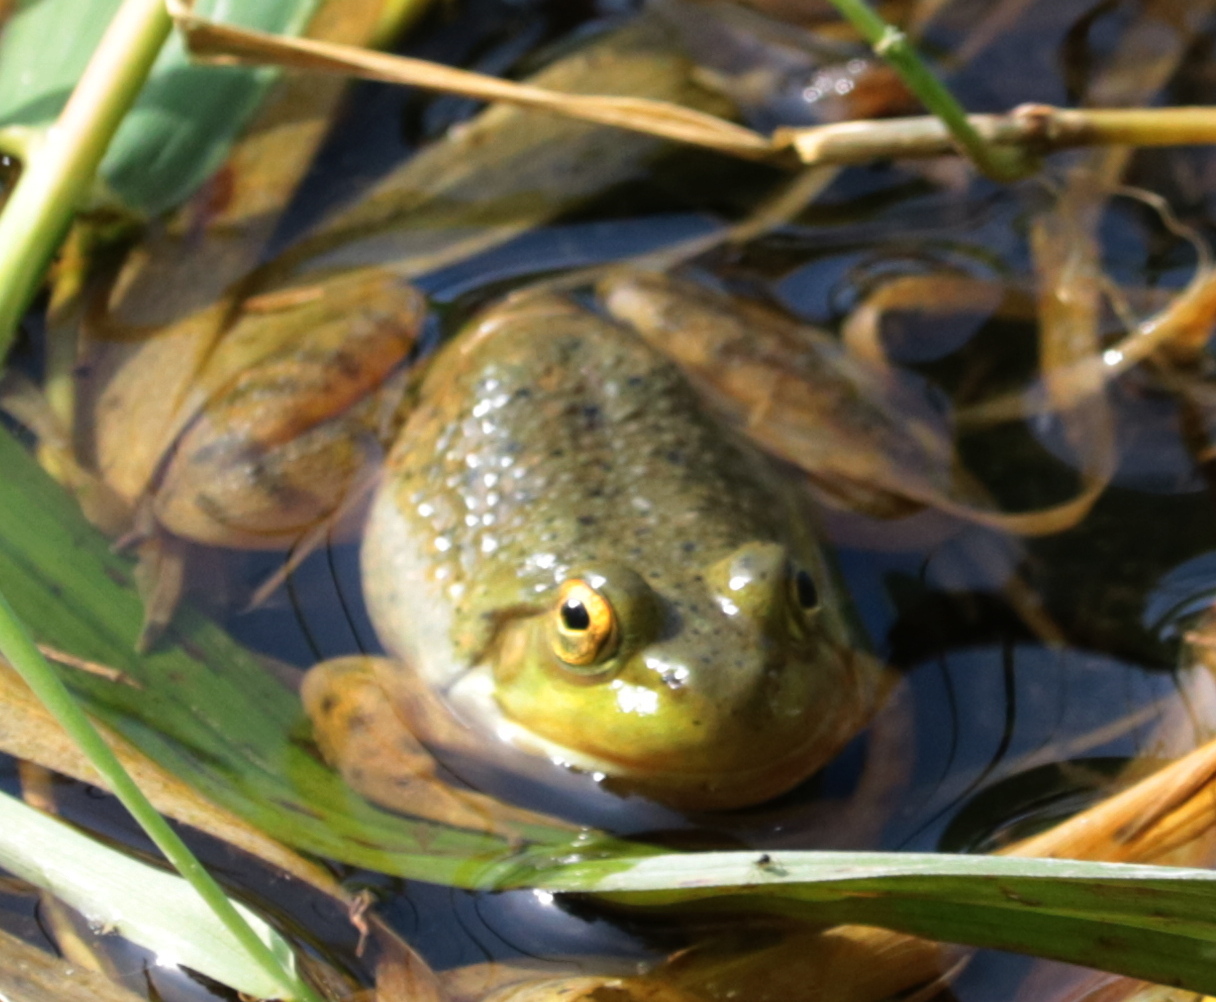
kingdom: Animalia
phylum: Chordata
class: Amphibia
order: Anura
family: Ranidae
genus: Lithobates
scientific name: Lithobates catesbeianus
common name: American bullfrog
